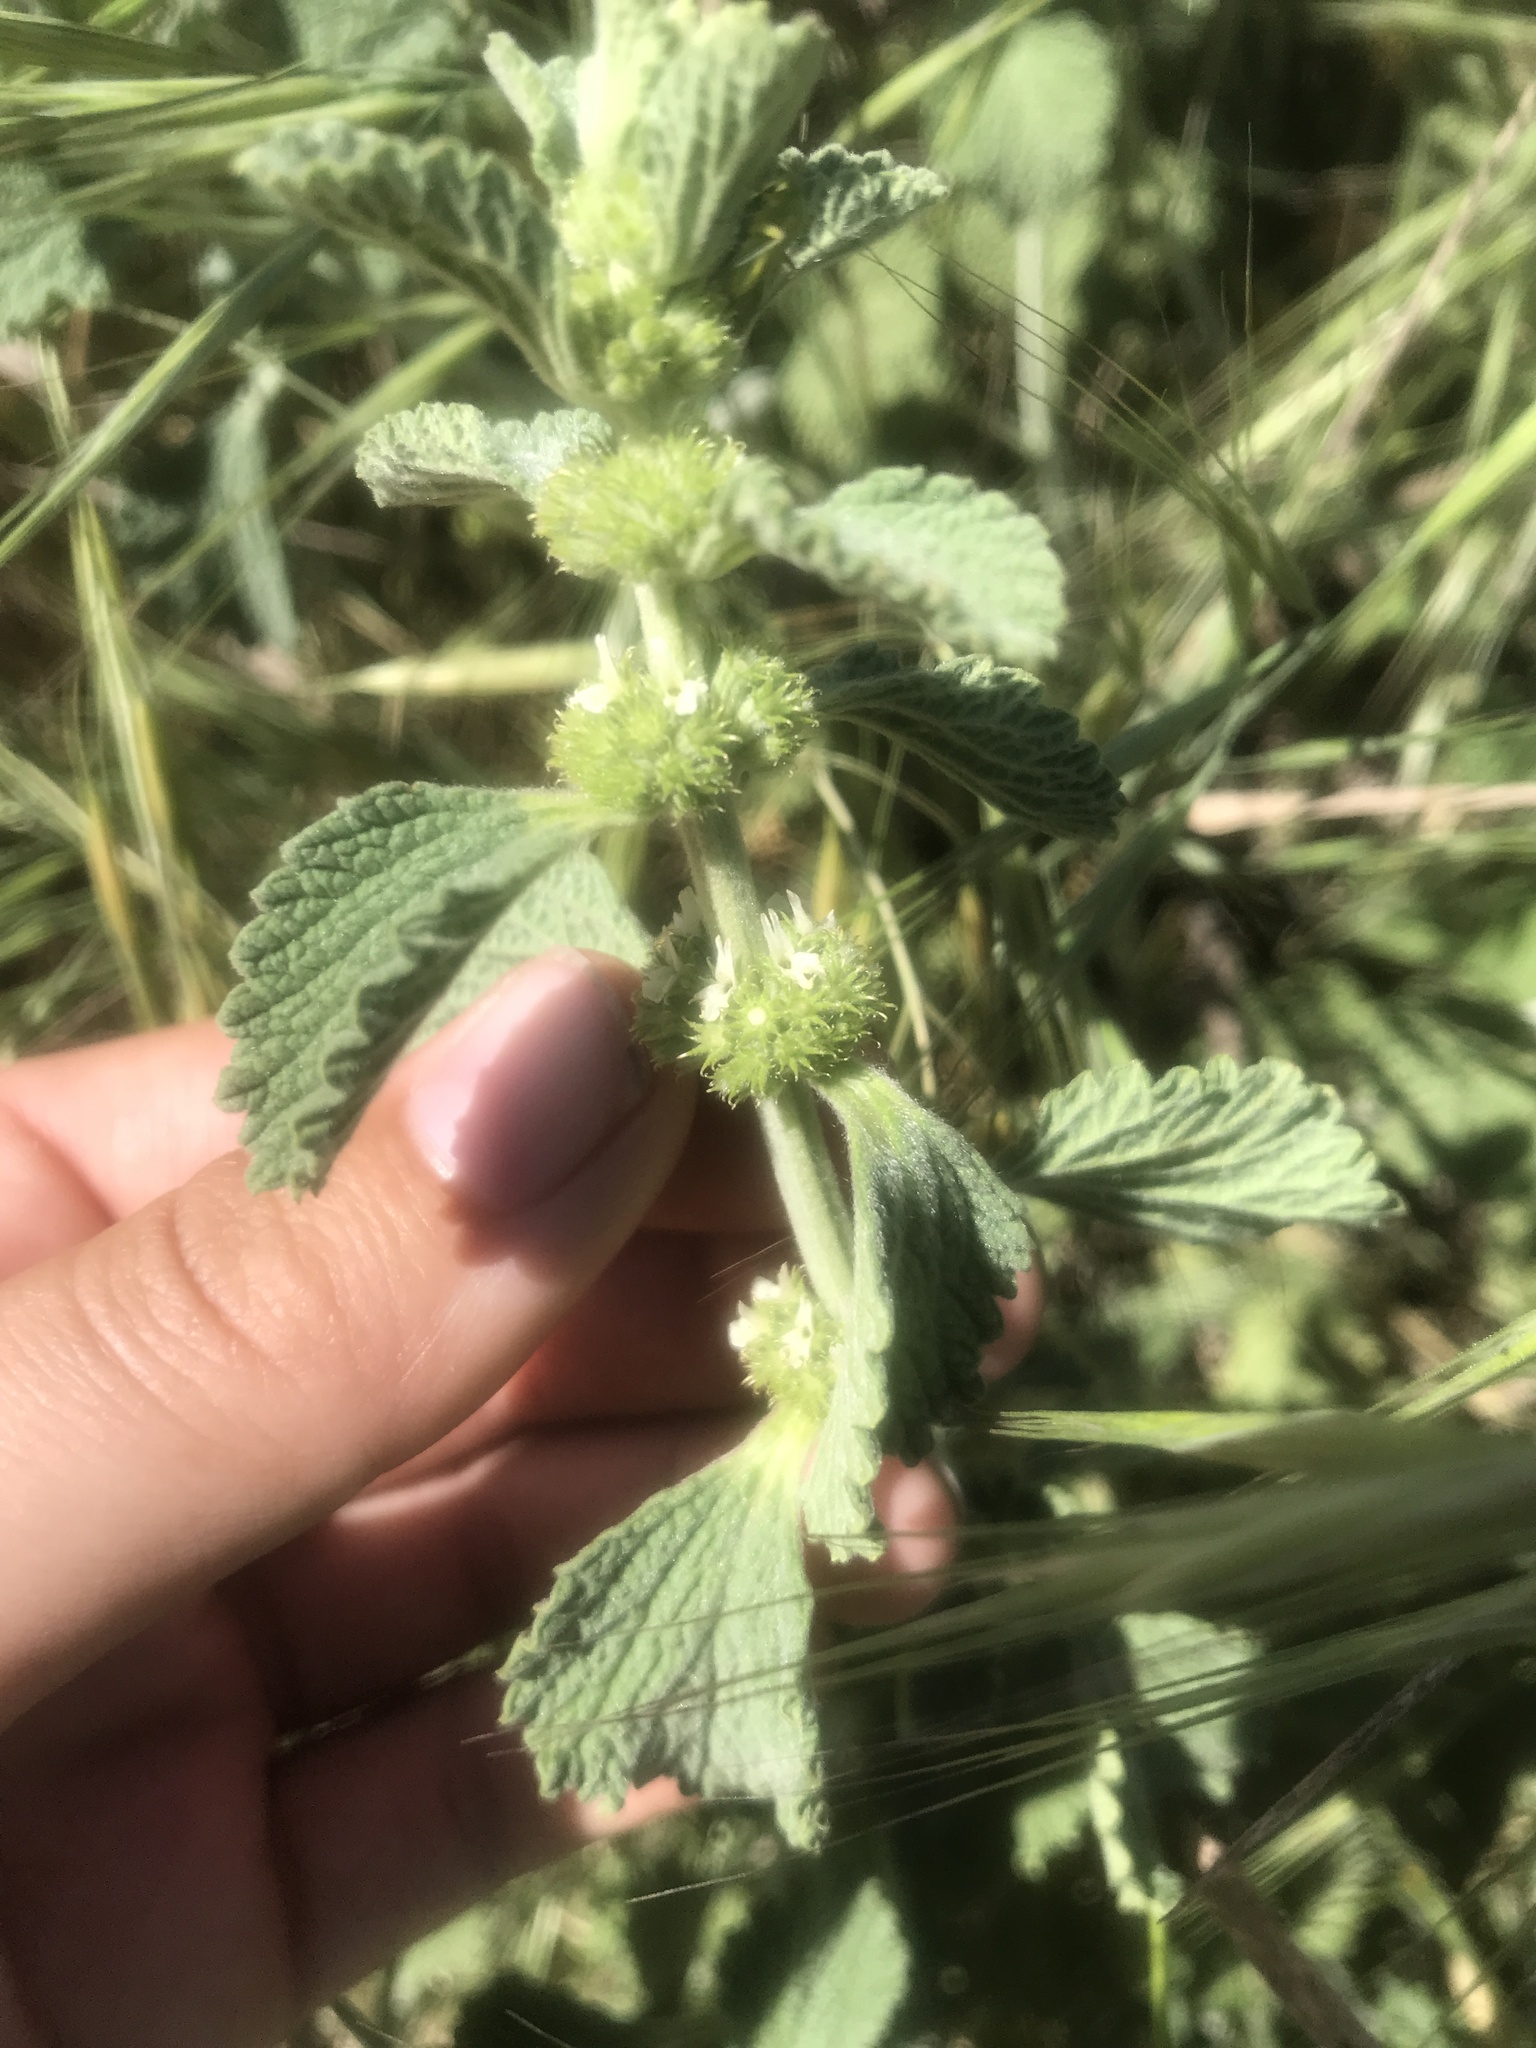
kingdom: Plantae
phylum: Tracheophyta
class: Magnoliopsida
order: Lamiales
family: Lamiaceae
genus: Marrubium
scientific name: Marrubium vulgare
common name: Horehound
